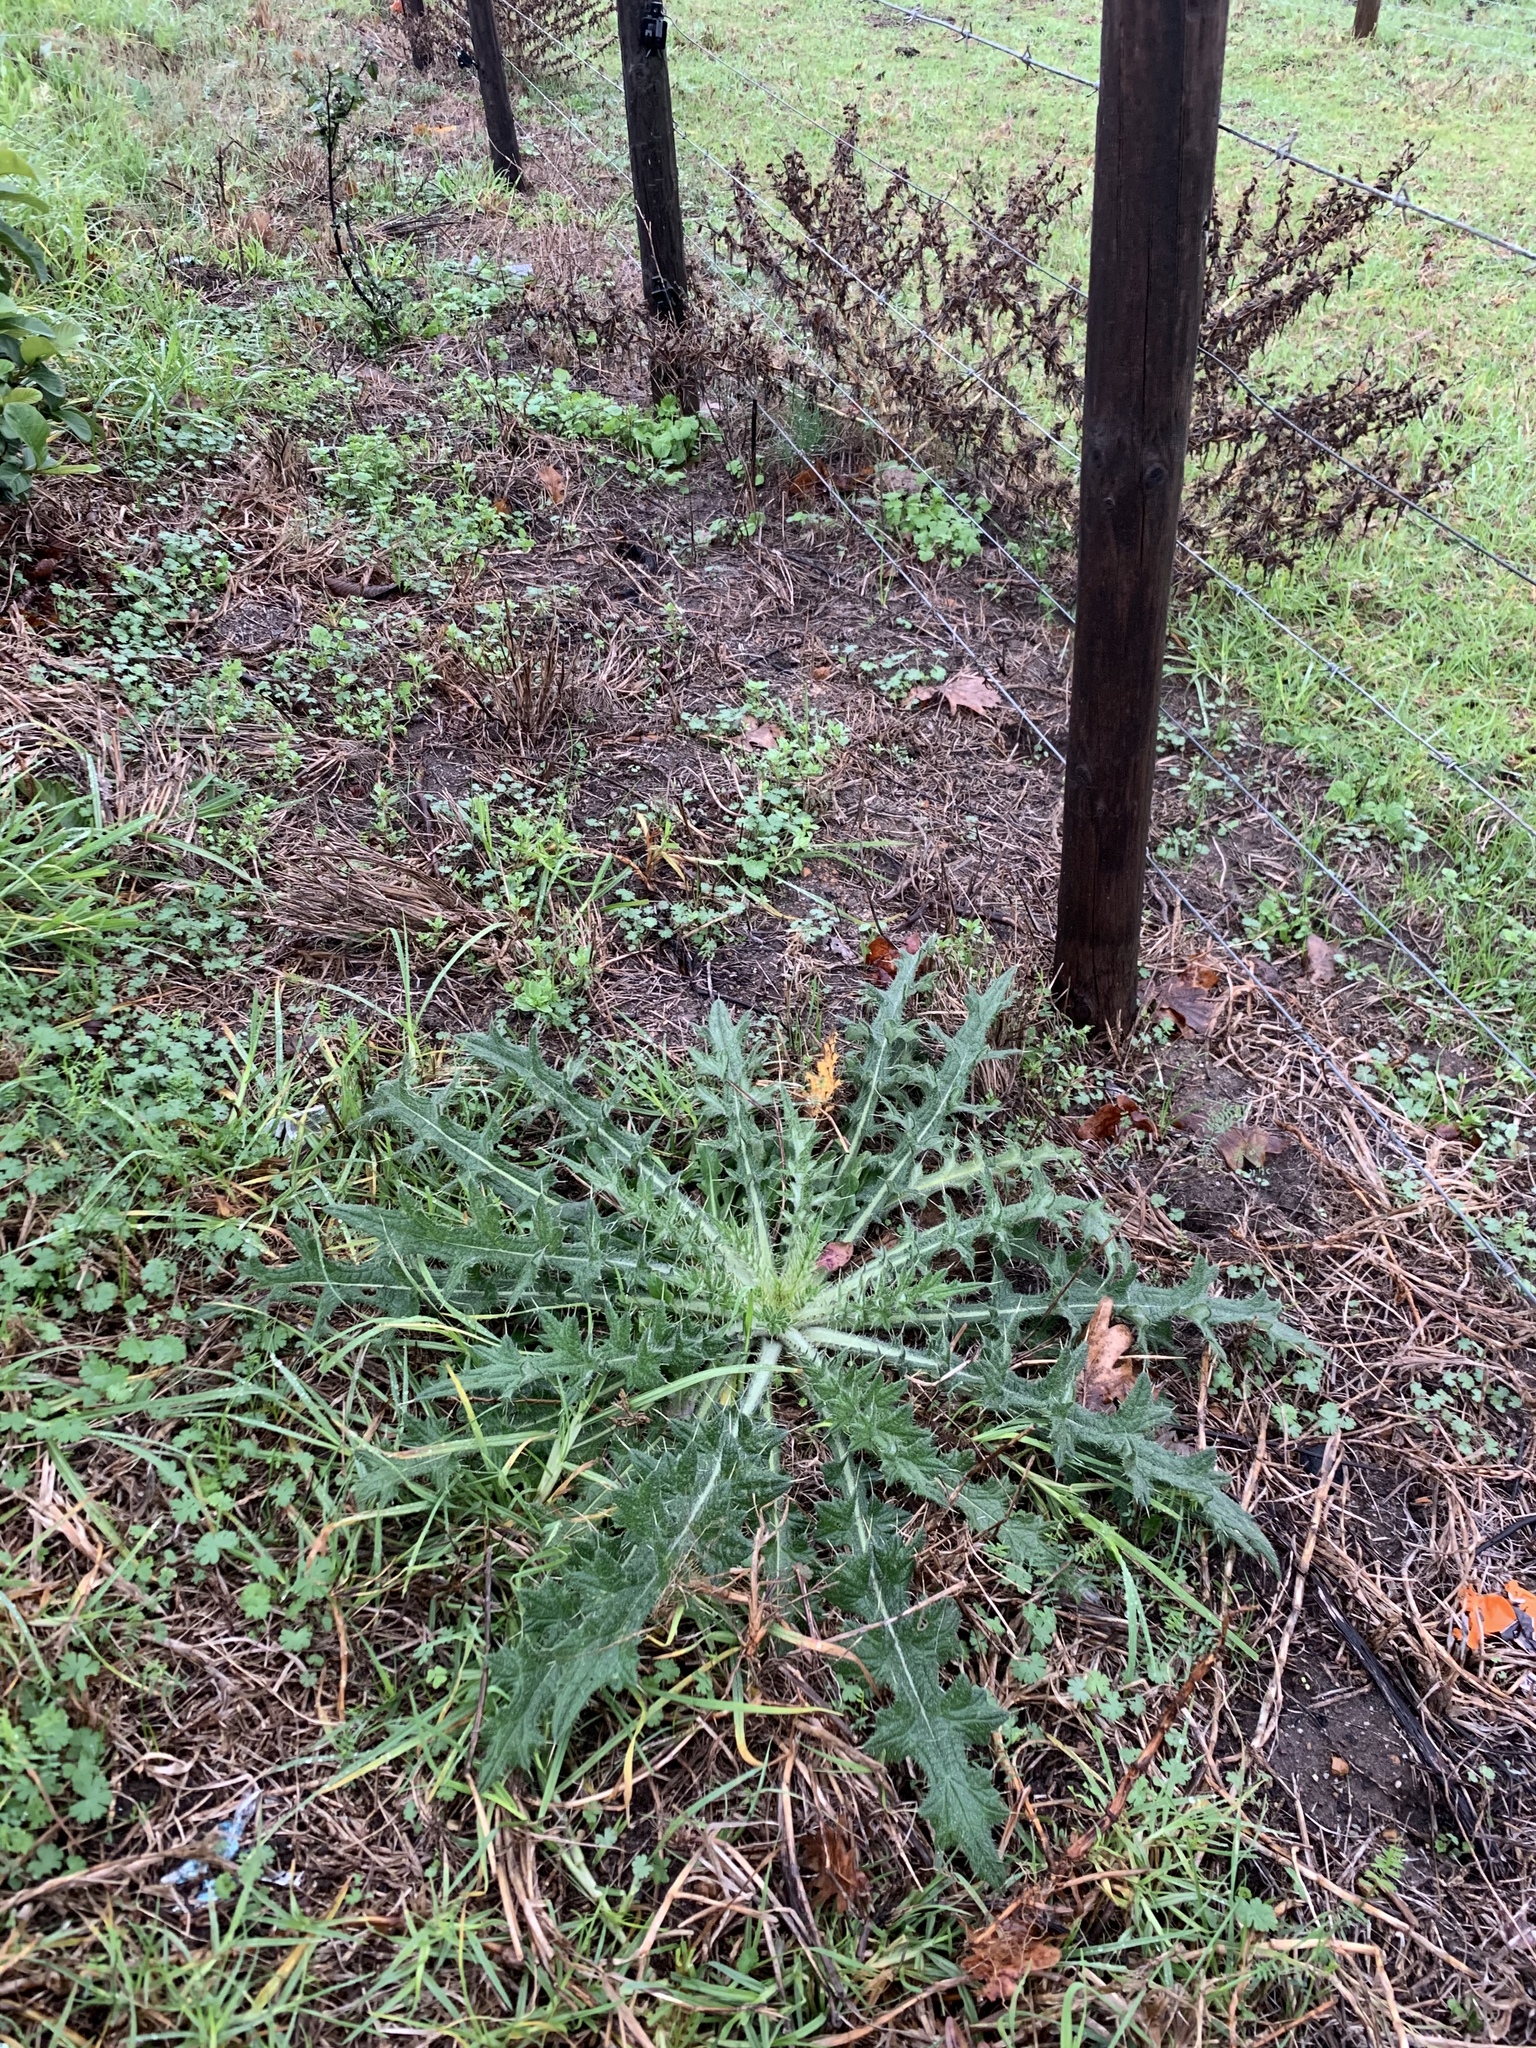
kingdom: Plantae
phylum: Tracheophyta
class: Magnoliopsida
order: Asterales
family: Asteraceae
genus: Cirsium
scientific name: Cirsium vulgare
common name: Bull thistle
